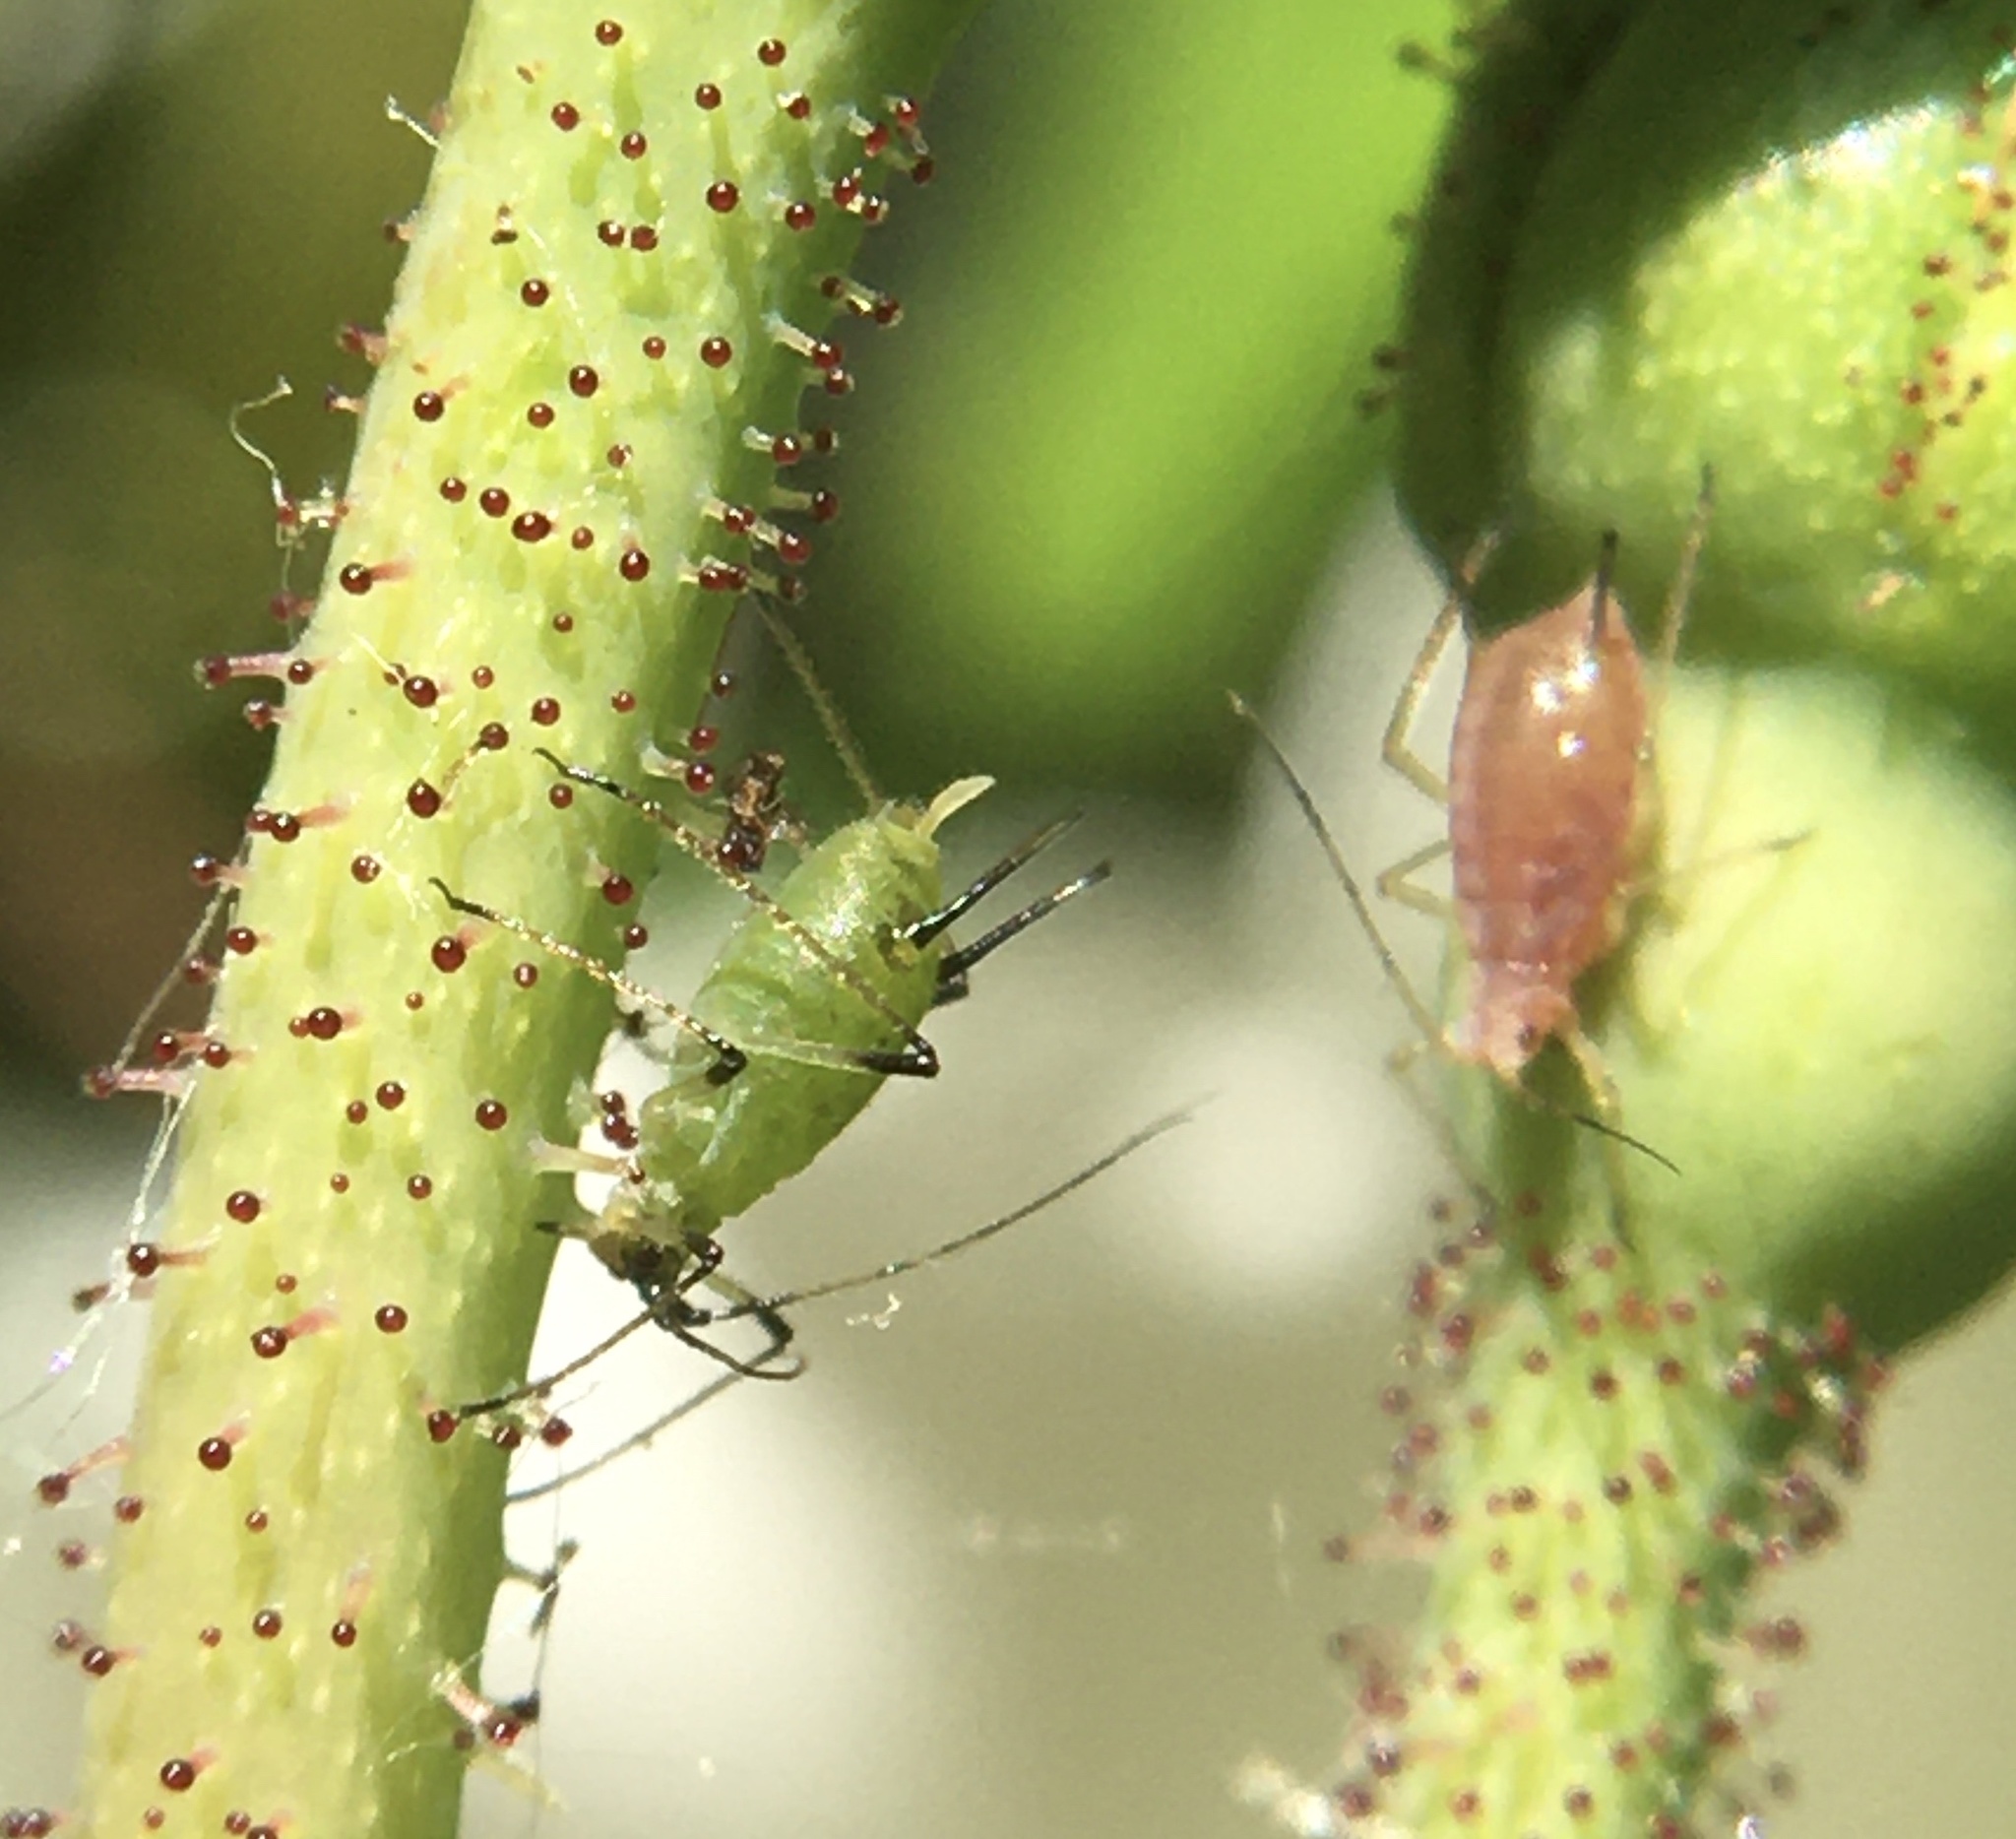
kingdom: Animalia
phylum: Arthropoda
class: Insecta
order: Hemiptera
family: Aphididae
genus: Macrosiphum
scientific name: Macrosiphum rosae
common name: Rose aphid
